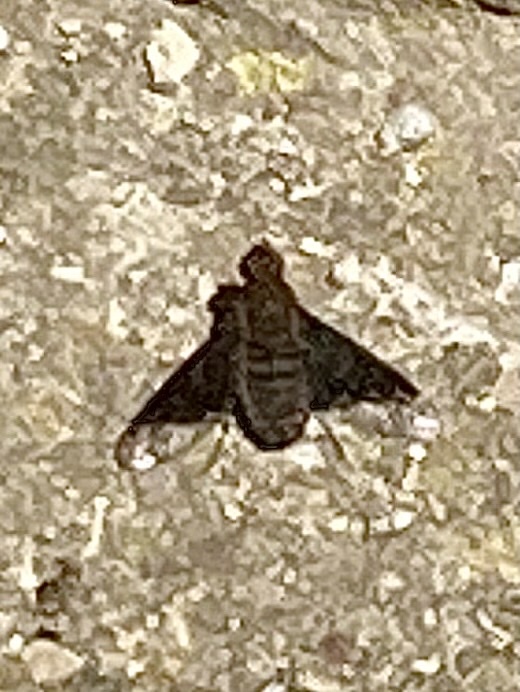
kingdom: Animalia
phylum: Arthropoda
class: Insecta
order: Diptera
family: Bombyliidae
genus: Hemipenthes
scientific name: Hemipenthes morio
